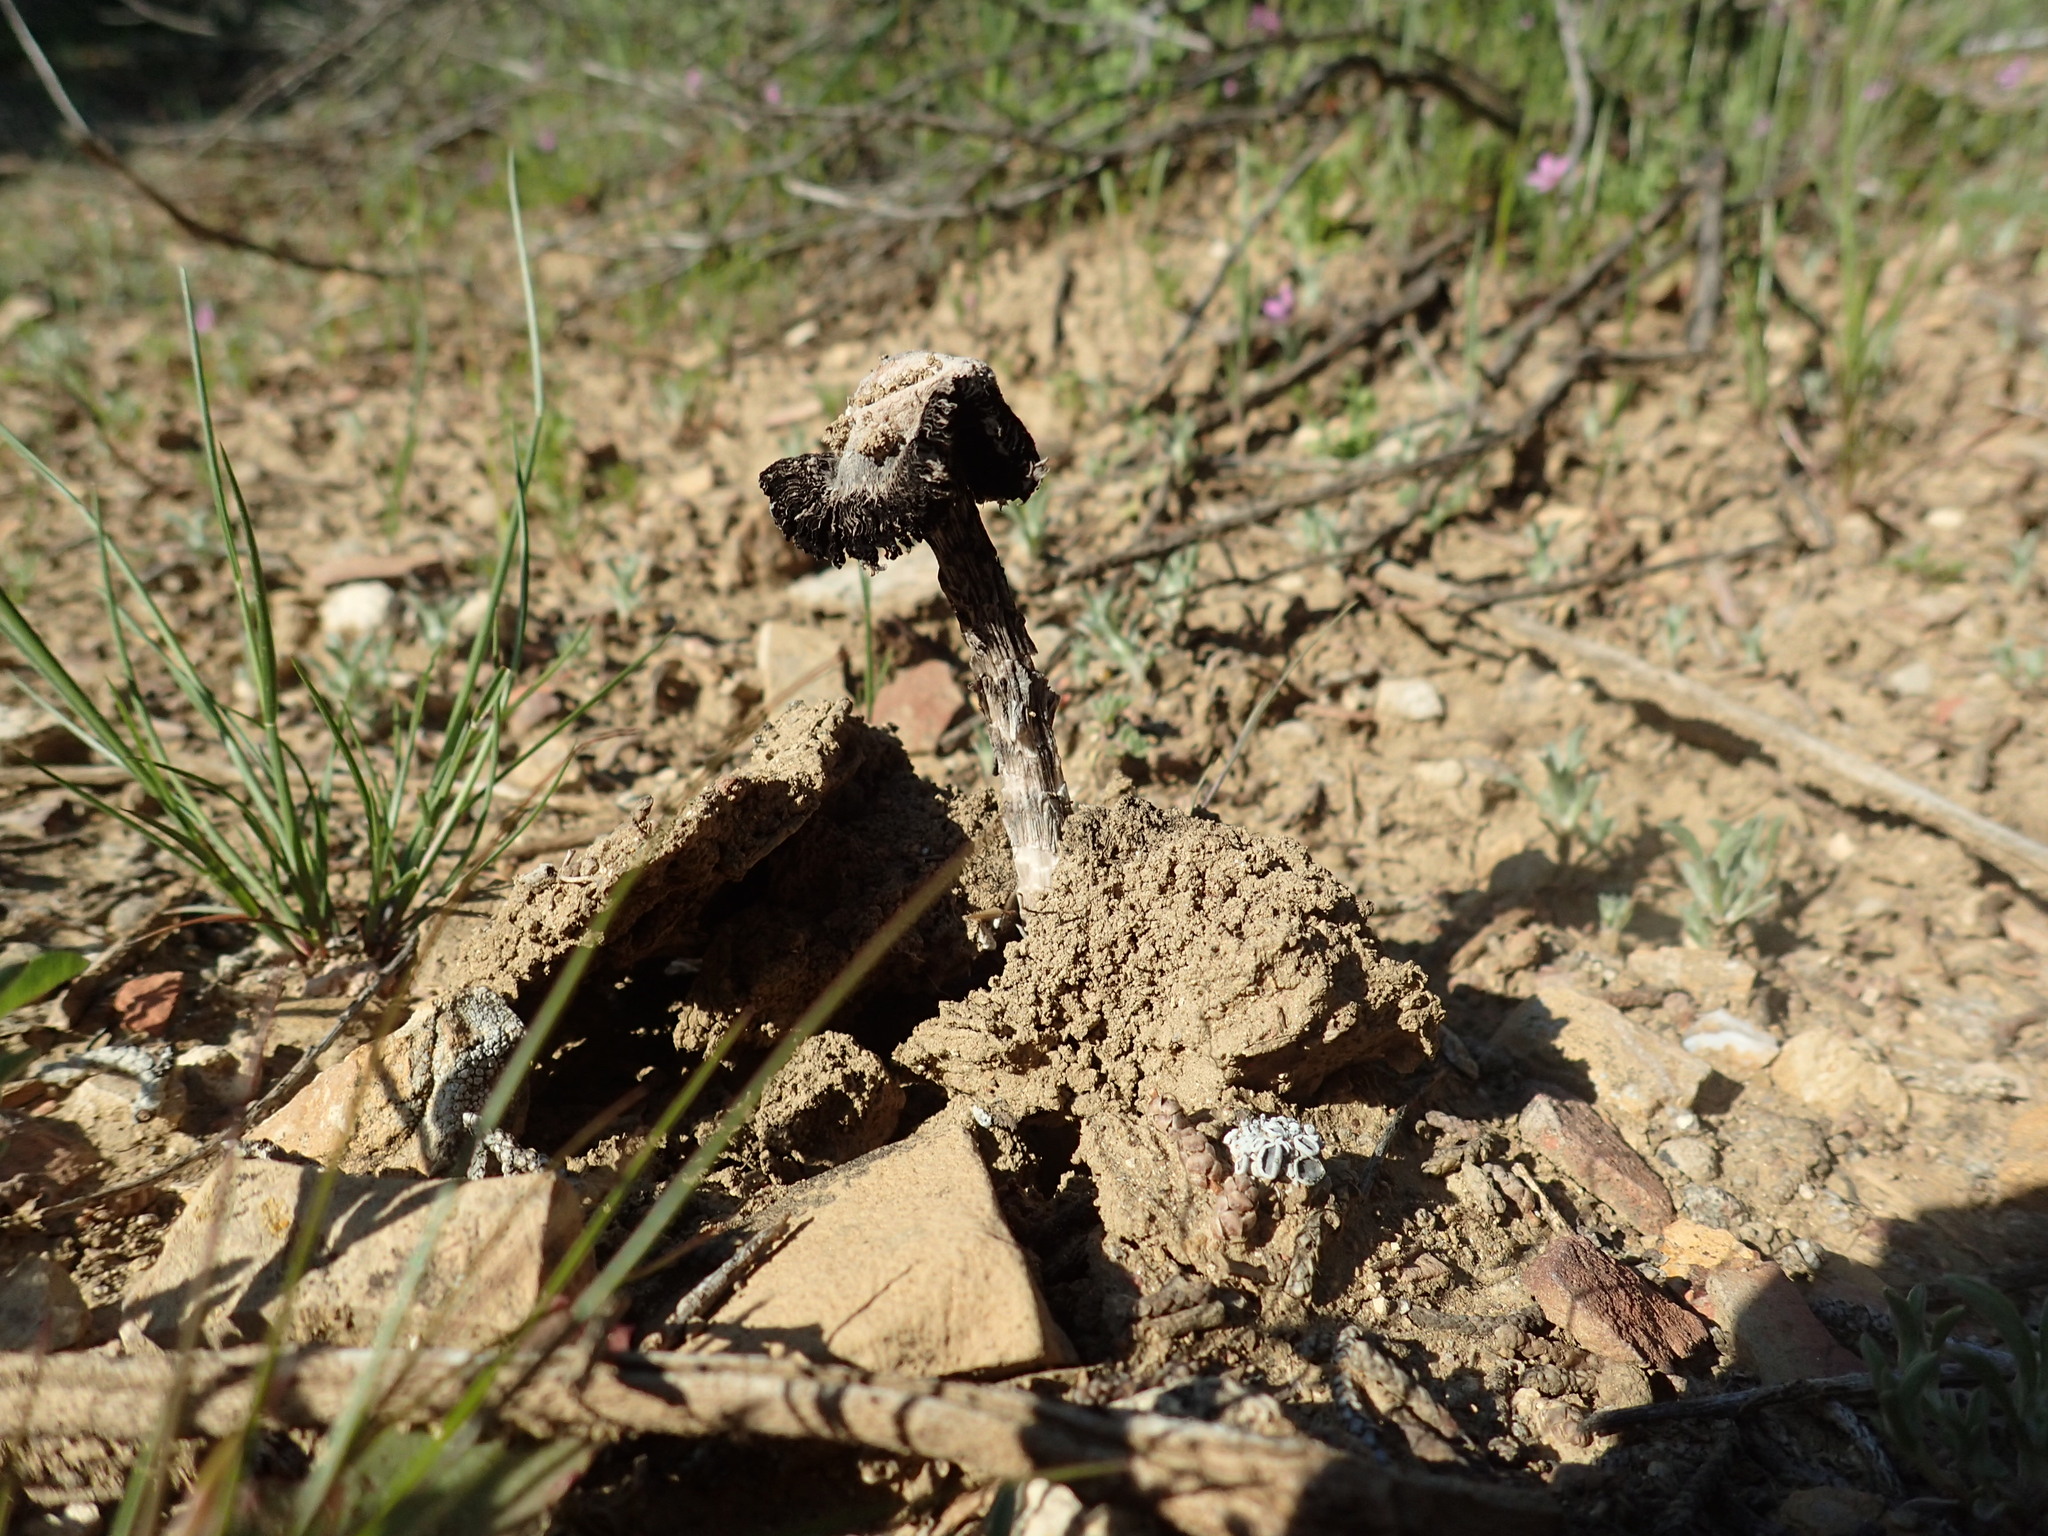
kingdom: Fungi
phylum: Basidiomycota
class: Agaricomycetes
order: Agaricales
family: Agaricaceae
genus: Montagnea
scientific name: Montagnea arenaria
